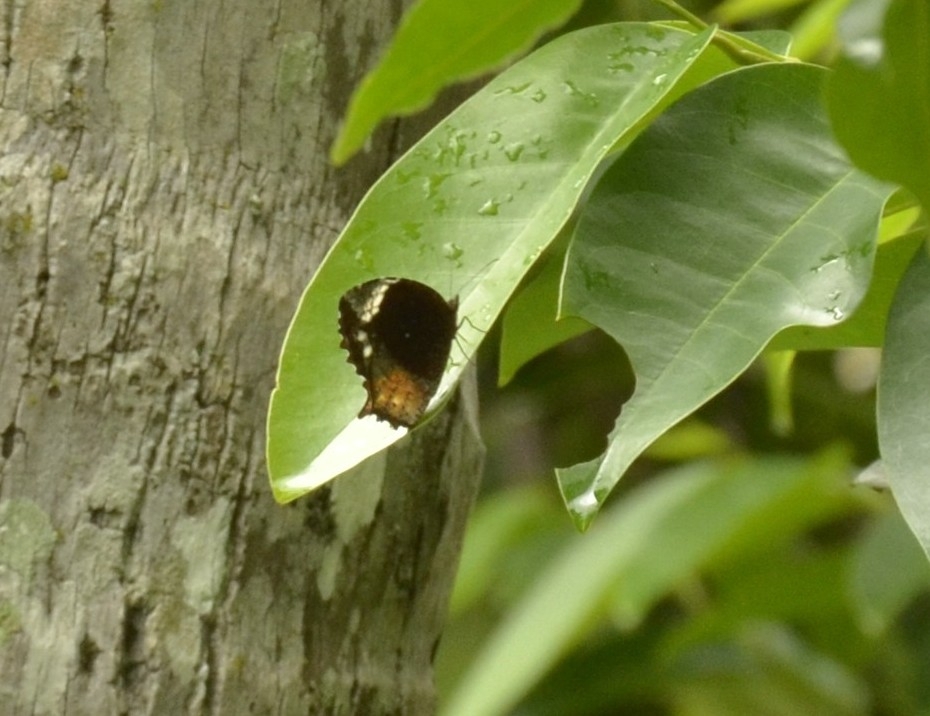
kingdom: Animalia
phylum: Arthropoda
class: Insecta
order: Lepidoptera
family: Nymphalidae
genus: Elymnias
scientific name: Elymnias caudata
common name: Tailed palmfly
